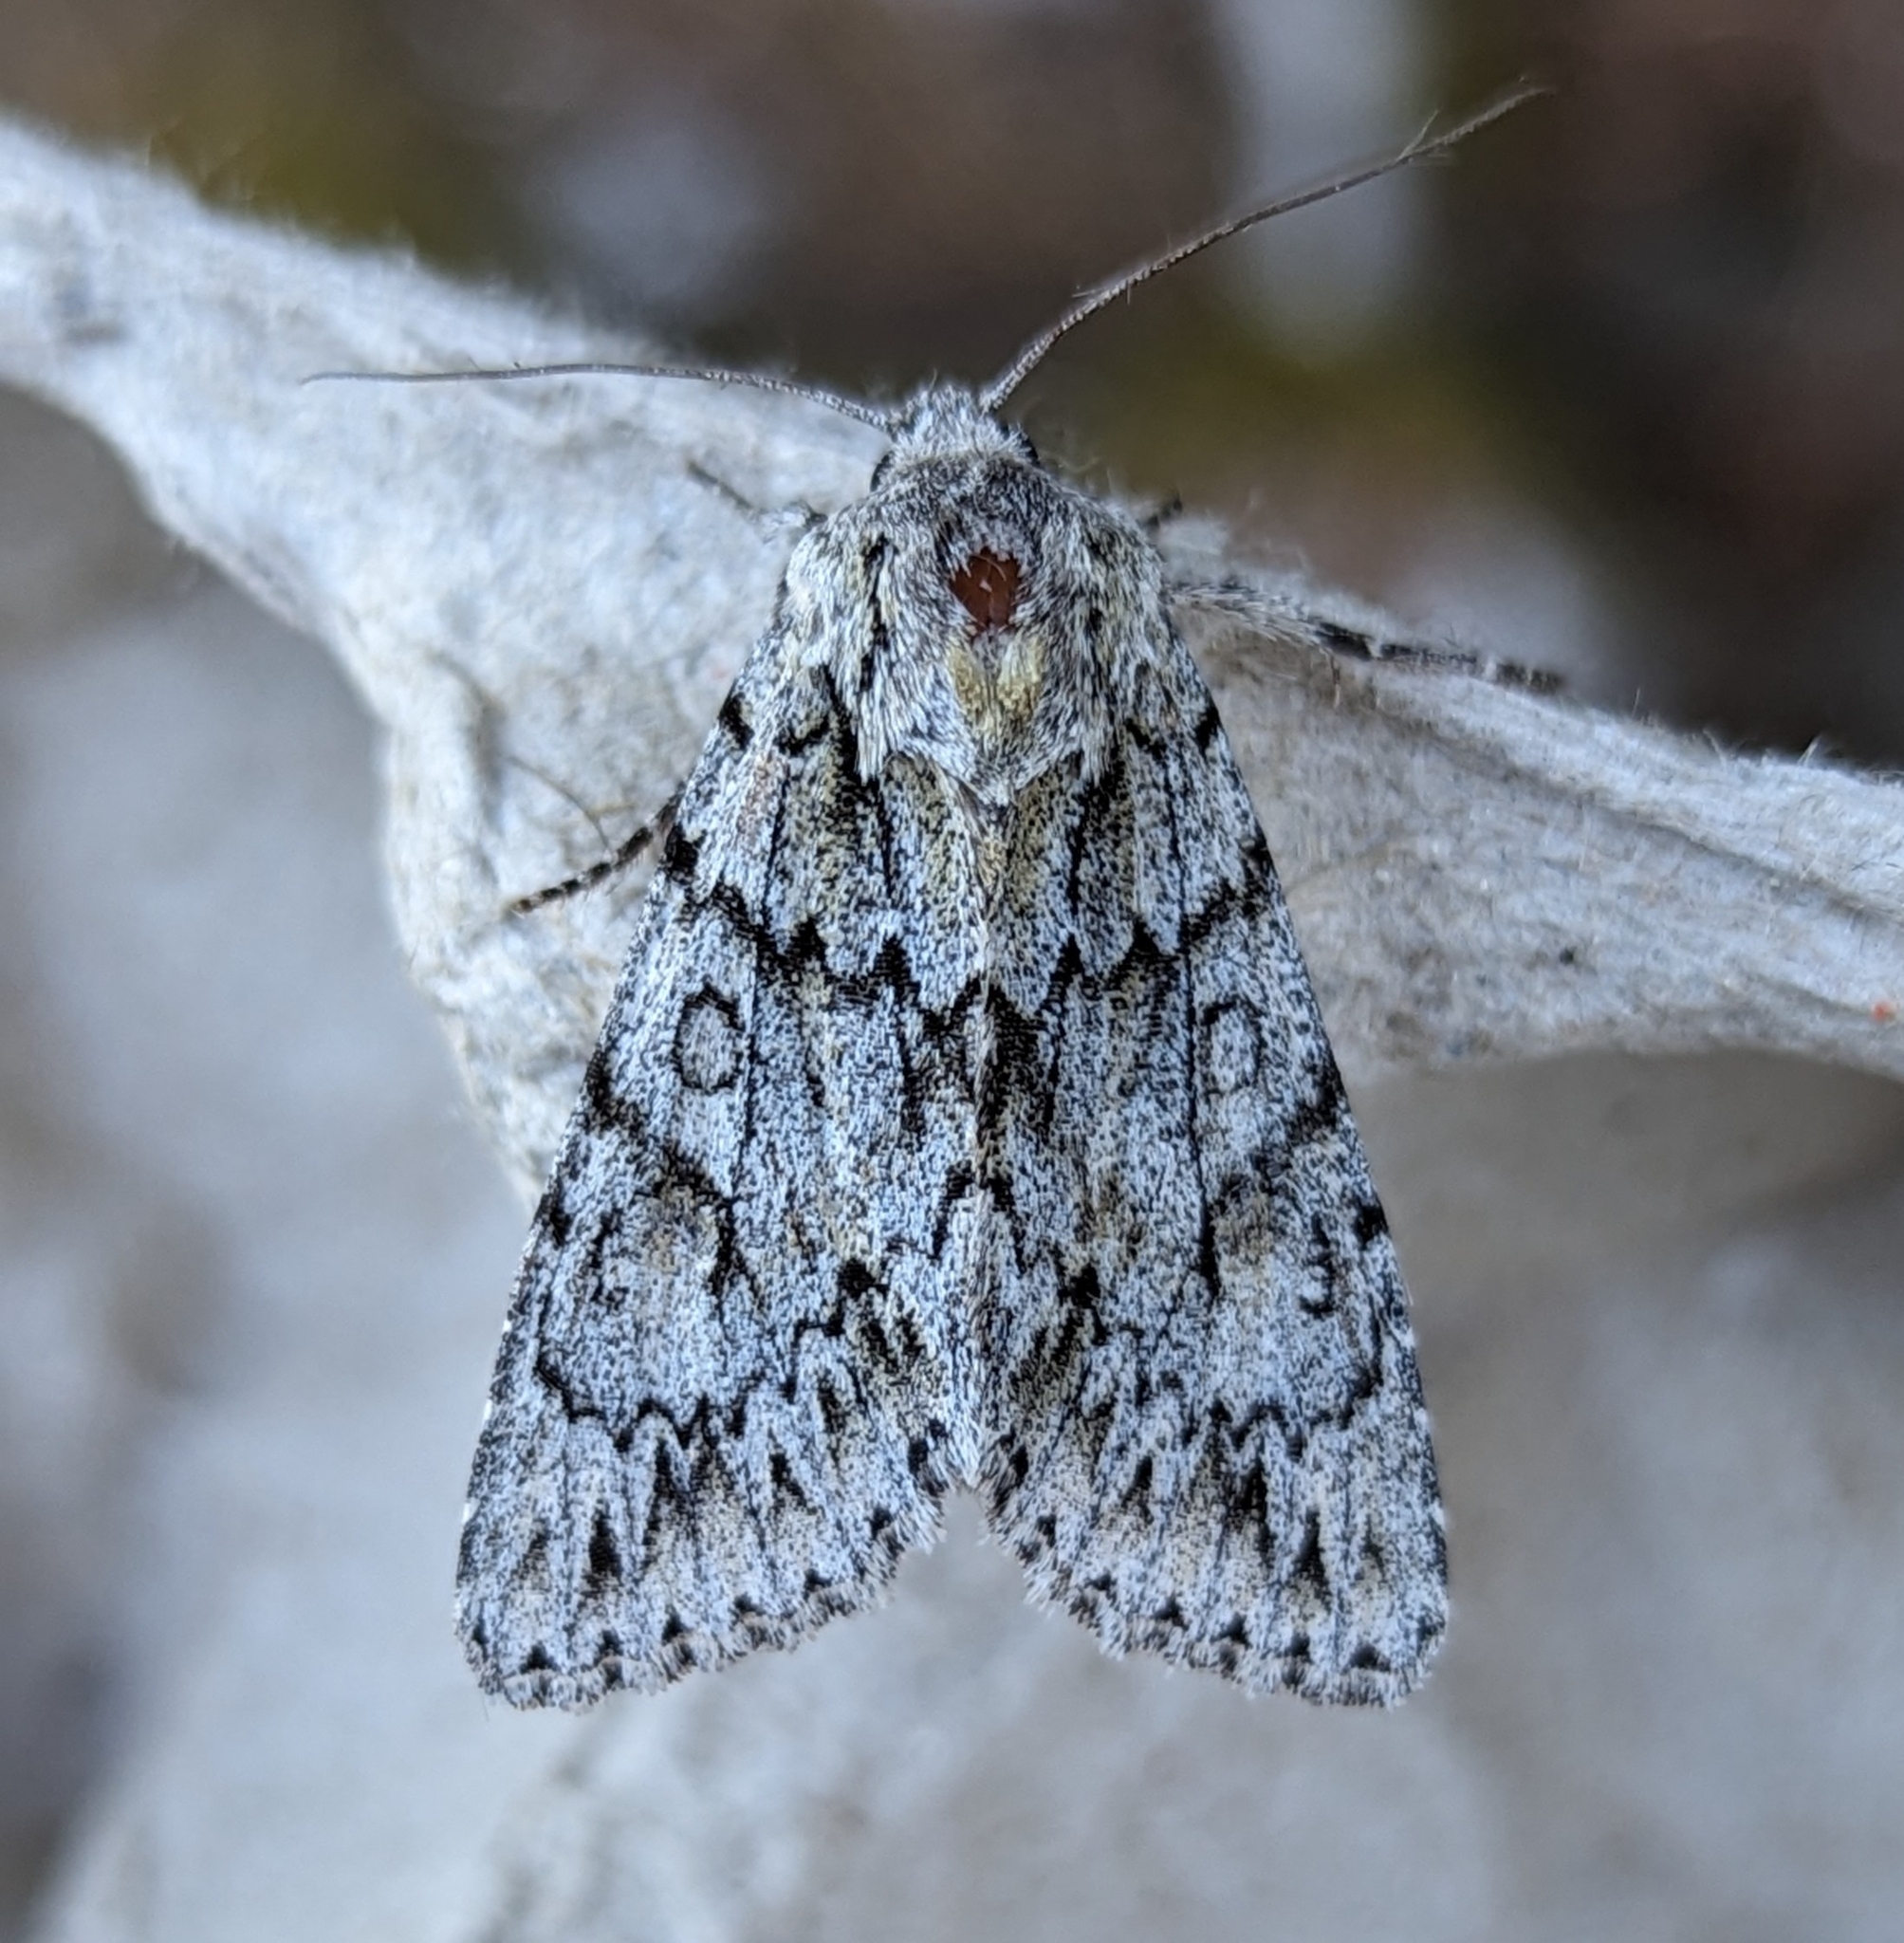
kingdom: Animalia
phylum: Arthropoda
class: Insecta
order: Lepidoptera
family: Noctuidae
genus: Andropolia
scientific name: Andropolia aedon
